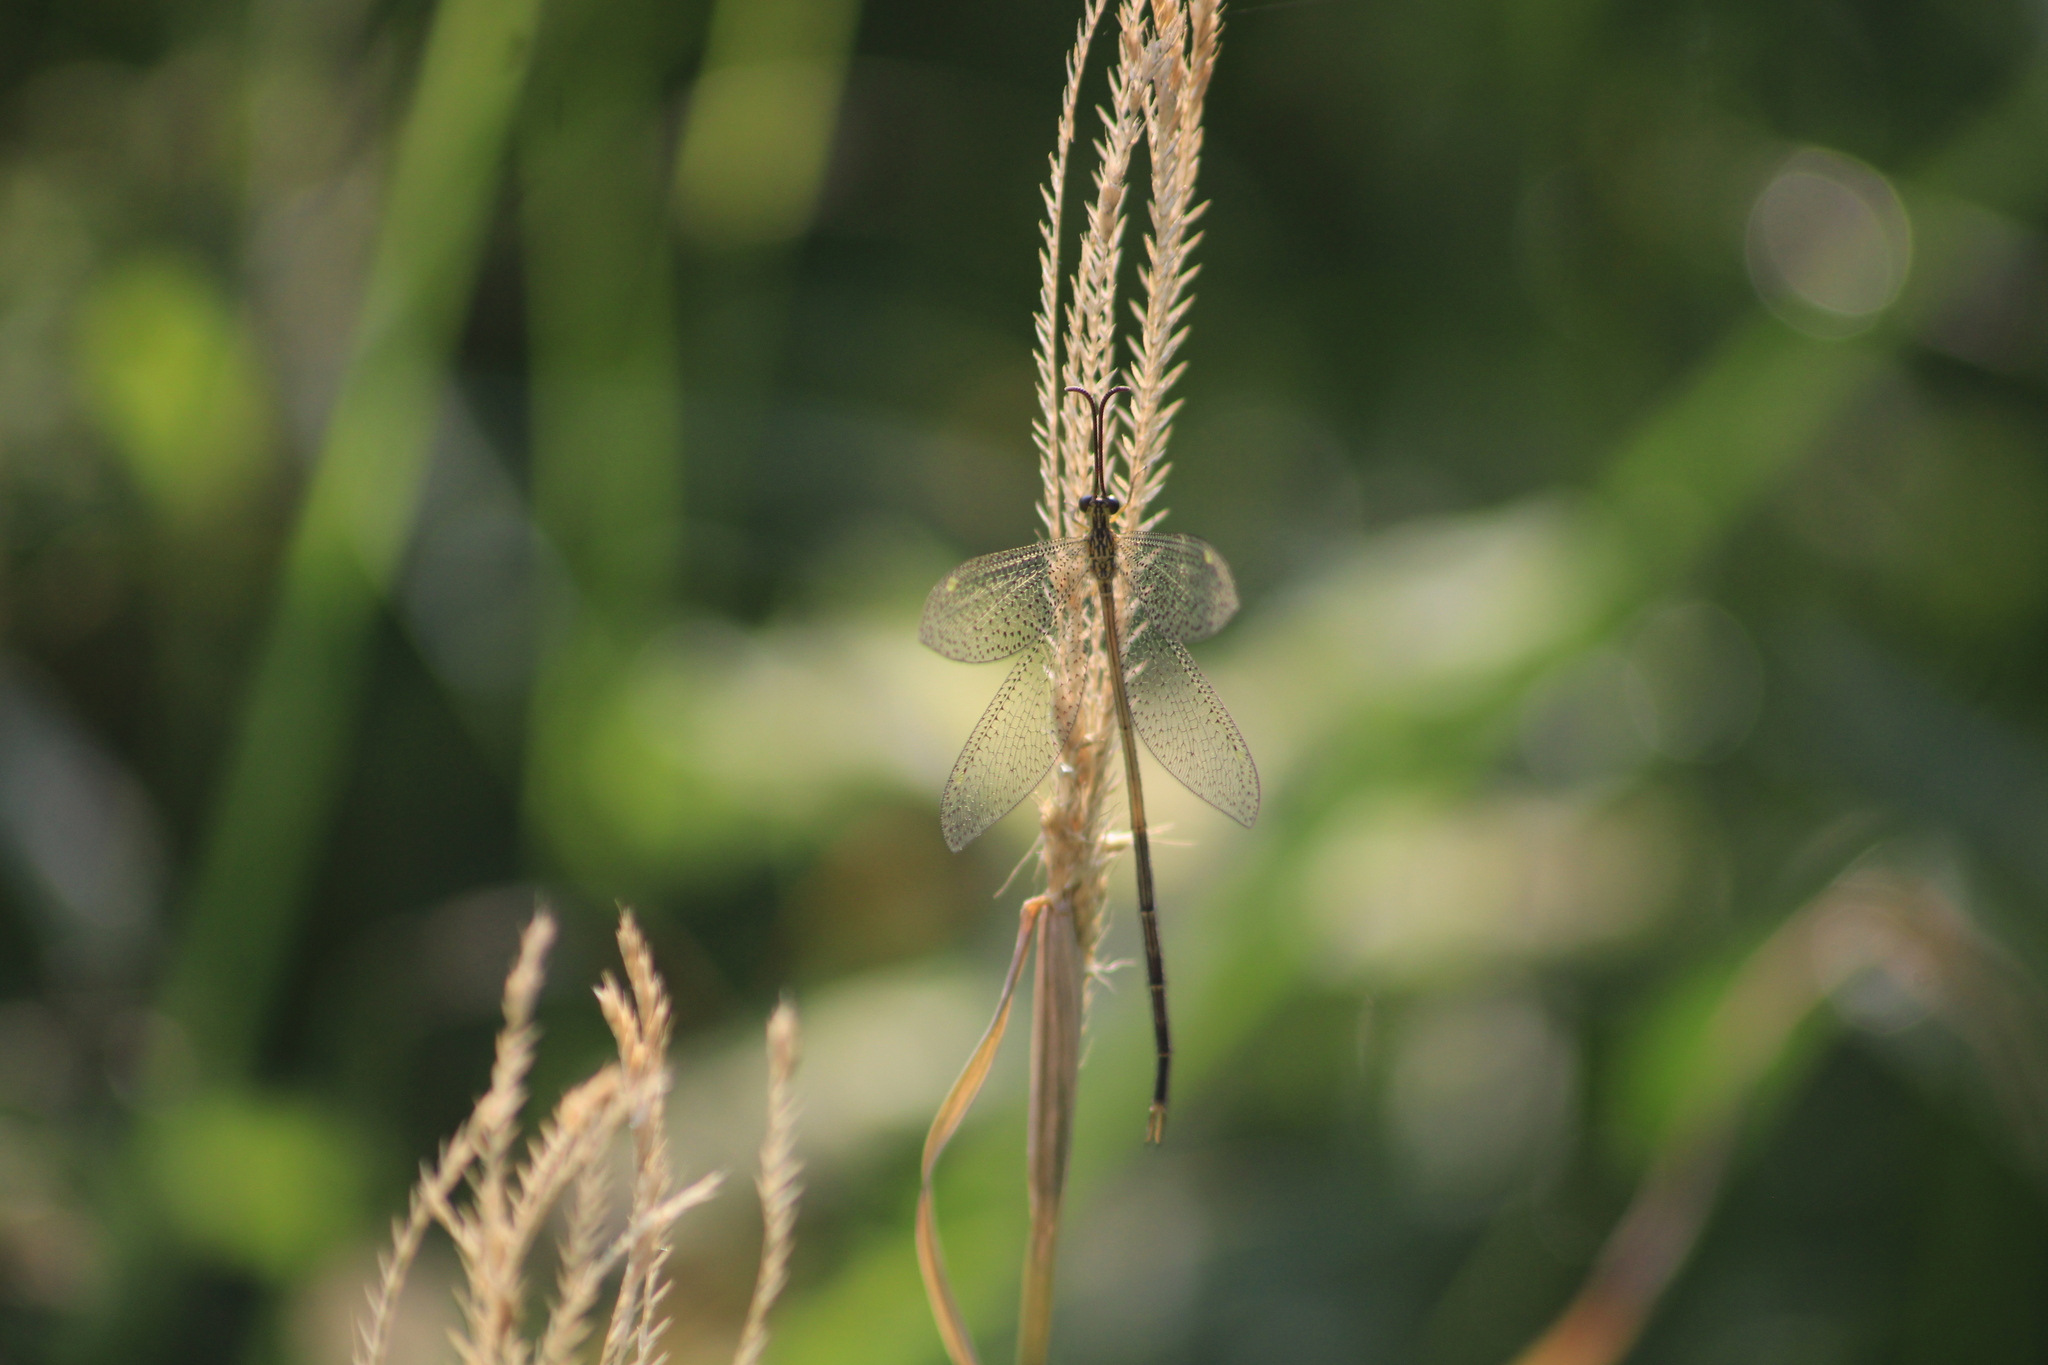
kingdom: Animalia
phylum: Arthropoda
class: Insecta
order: Neuroptera
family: Myrmeleontidae
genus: Brachynemurus
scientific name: Brachynemurus versutus
